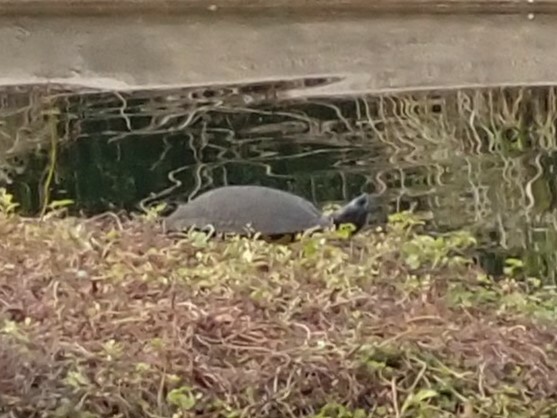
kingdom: Animalia
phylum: Chordata
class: Testudines
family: Emydidae
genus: Trachemys
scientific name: Trachemys scripta
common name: Slider
